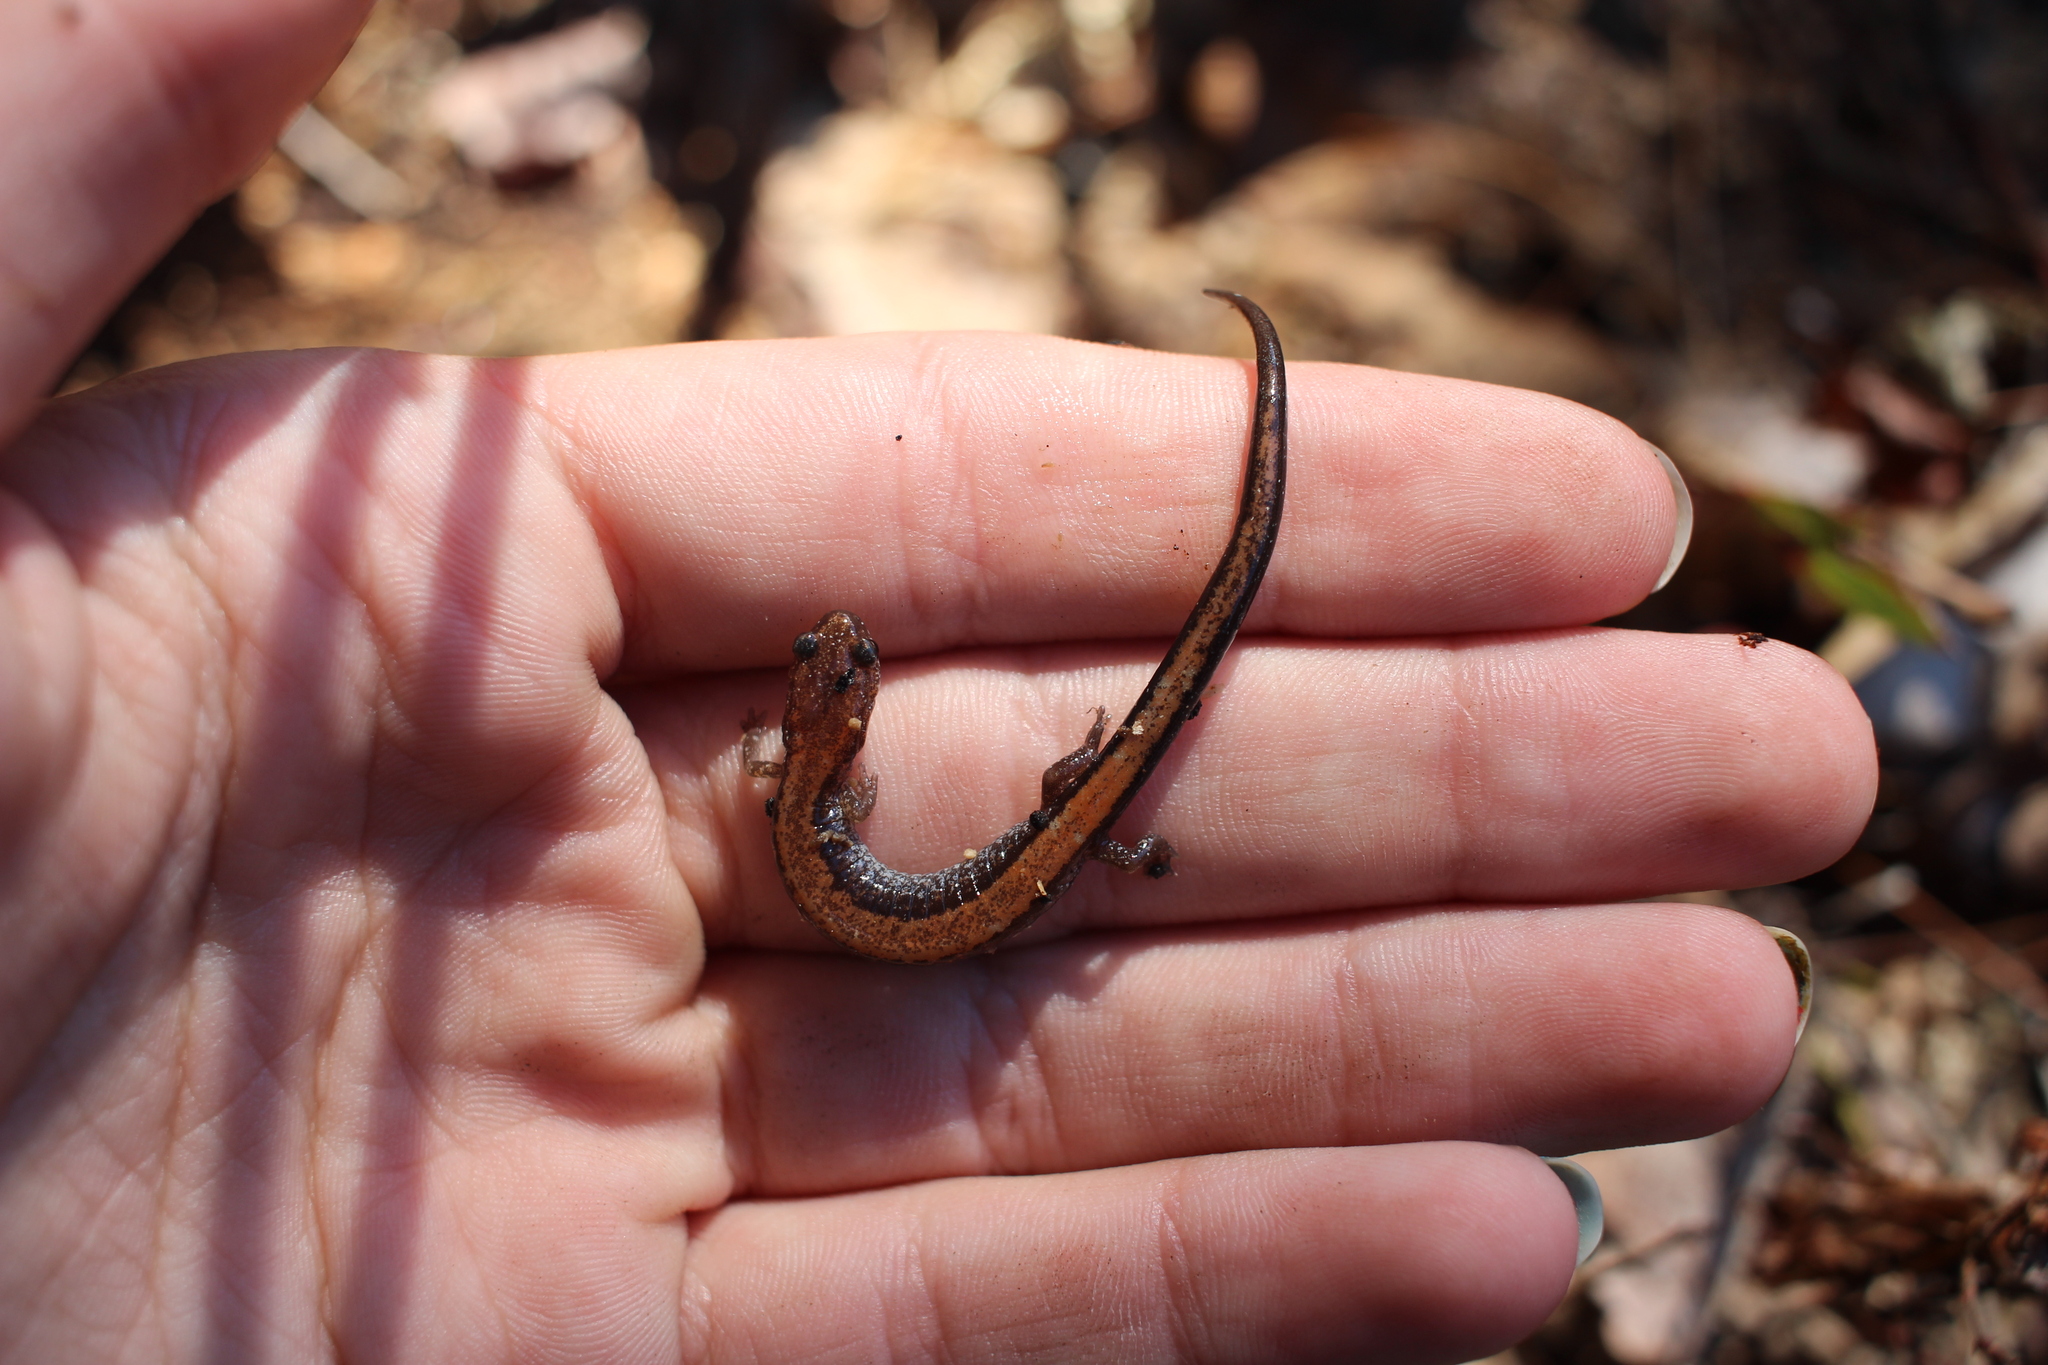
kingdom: Animalia
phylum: Chordata
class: Amphibia
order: Caudata
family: Plethodontidae
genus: Plethodon
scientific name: Plethodon cinereus
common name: Redback salamander
